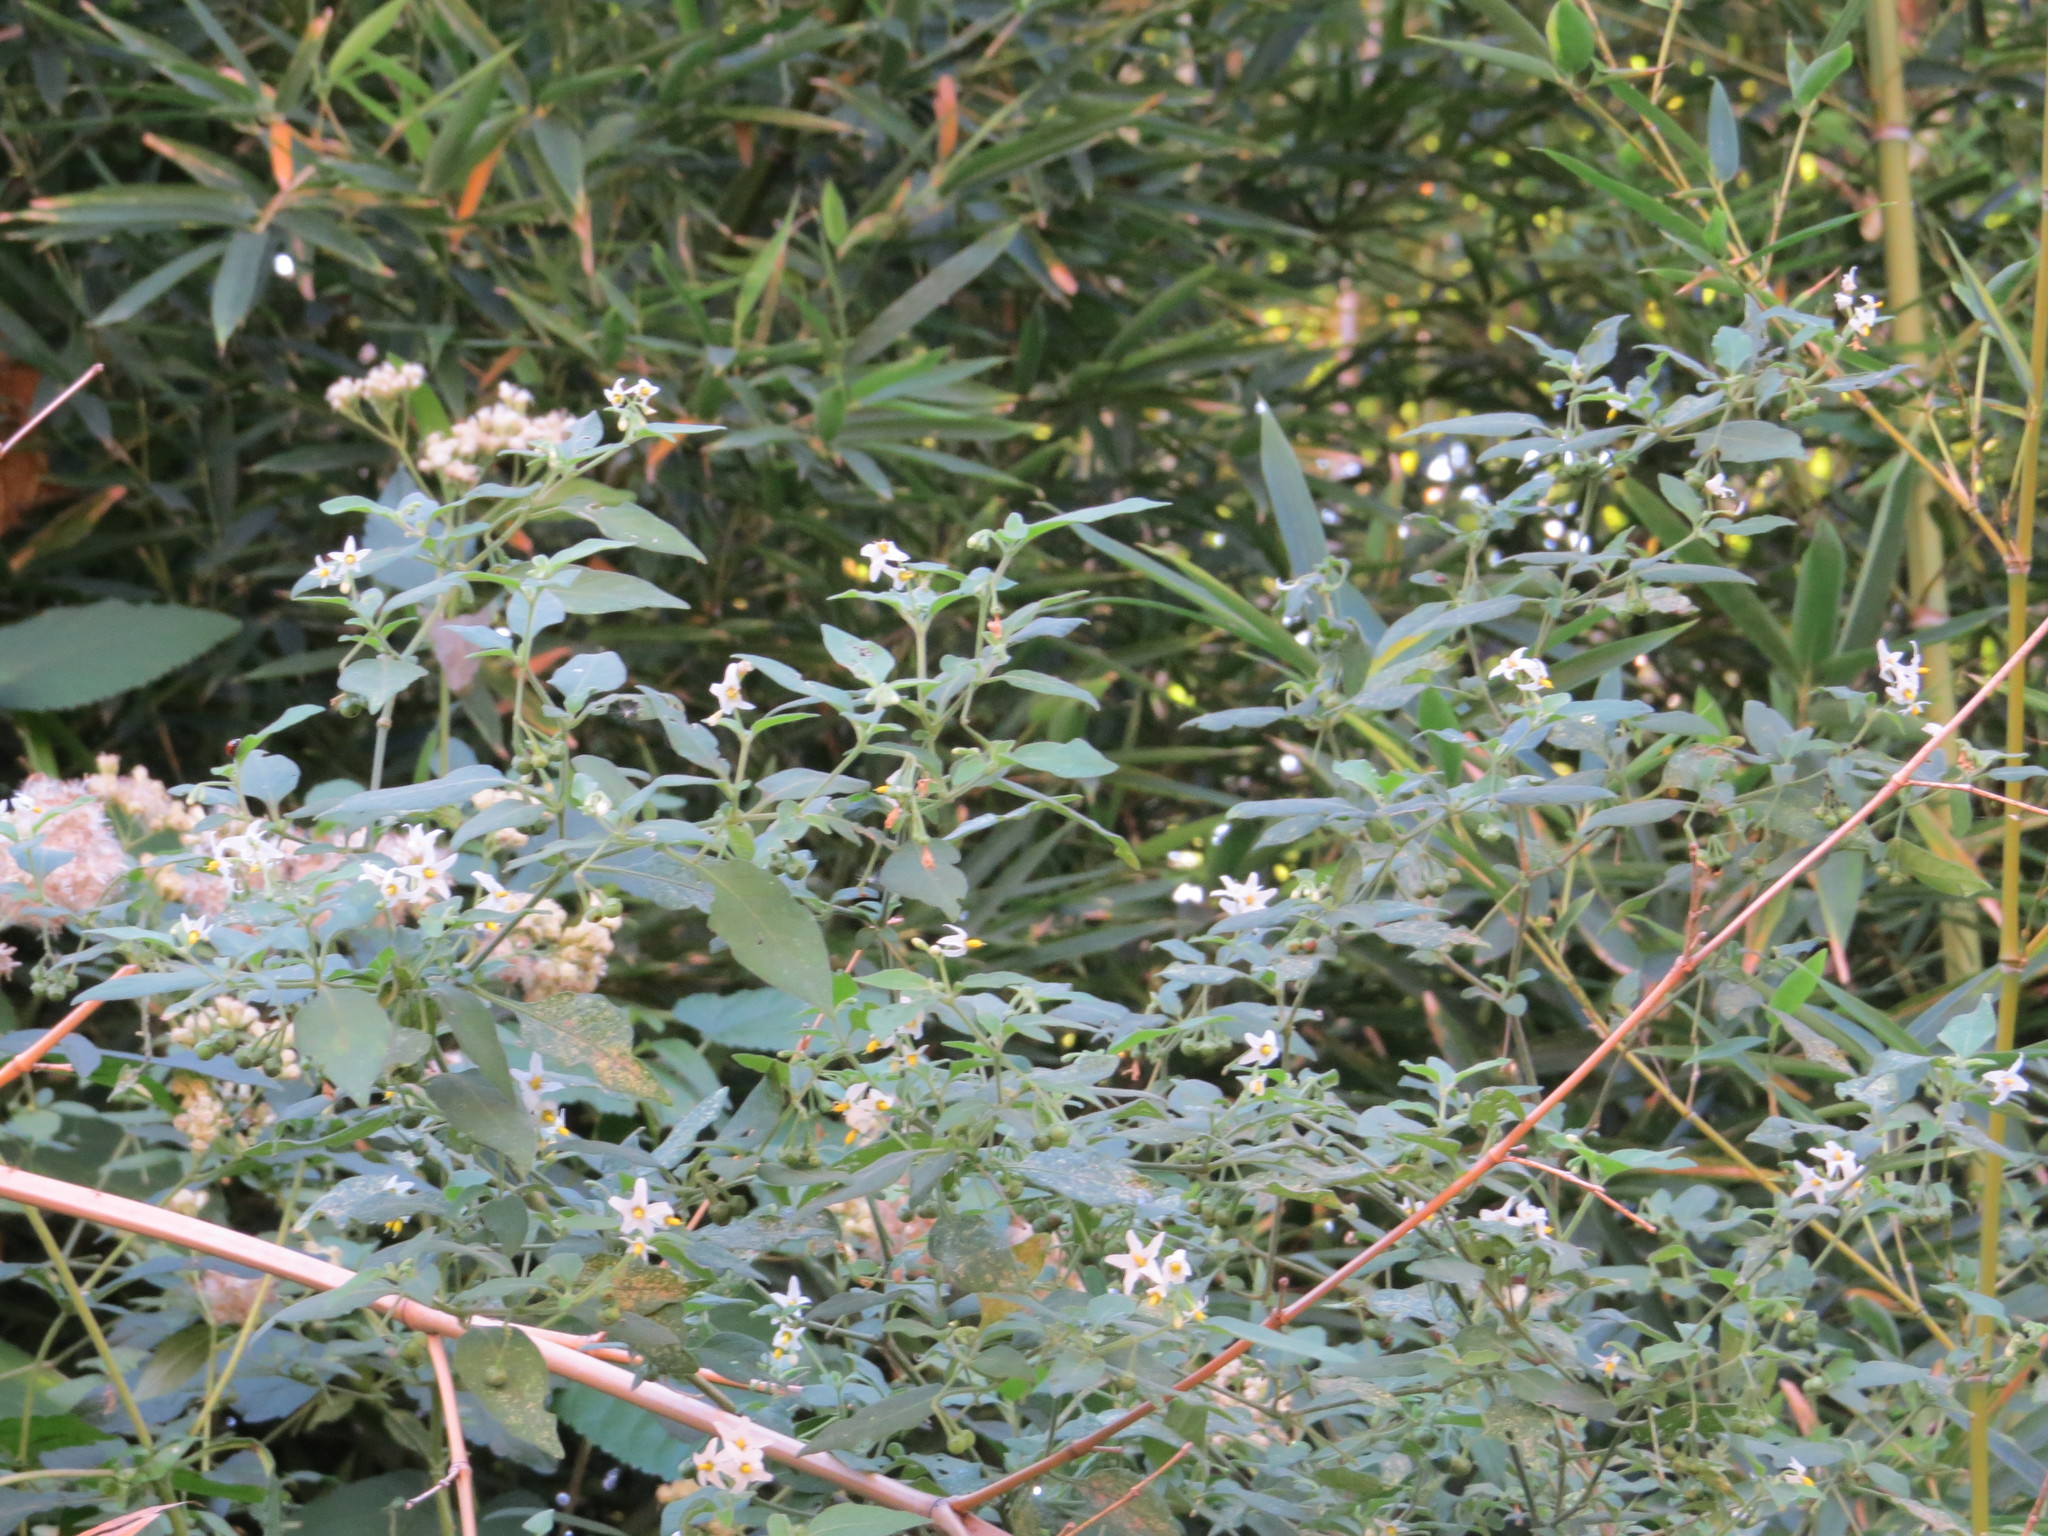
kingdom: Plantae
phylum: Tracheophyta
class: Magnoliopsida
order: Solanales
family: Solanaceae
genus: Salpichroa
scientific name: Salpichroa origanifolia
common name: Lily-of-the-valley-vine
